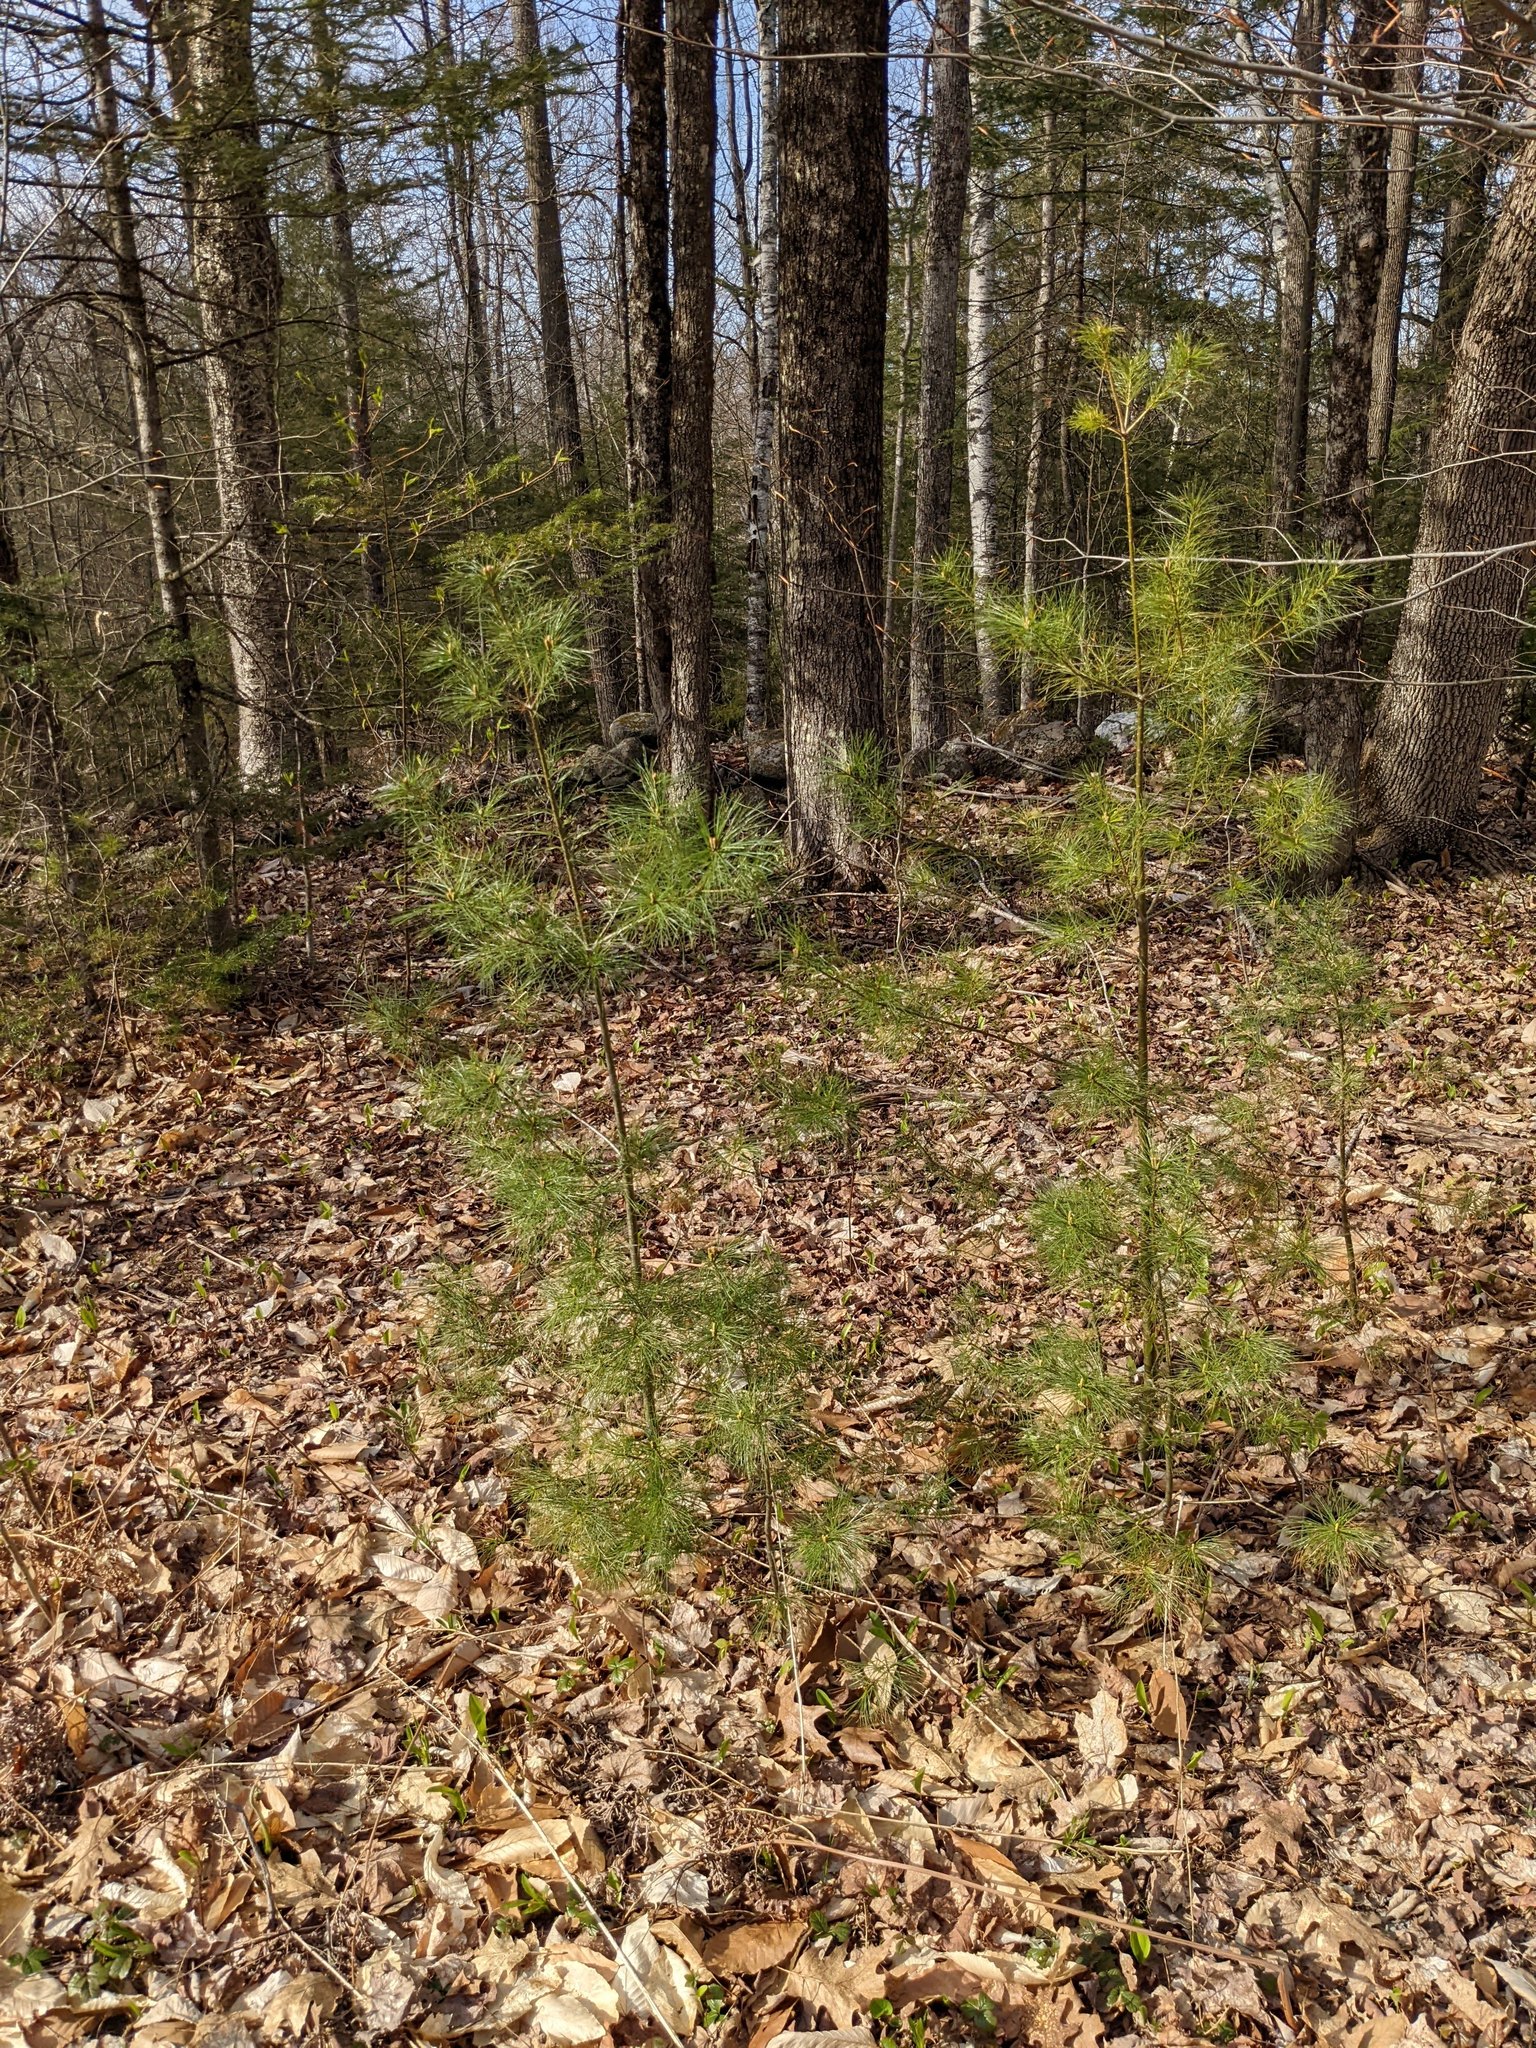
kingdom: Plantae
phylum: Tracheophyta
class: Pinopsida
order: Pinales
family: Pinaceae
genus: Pinus
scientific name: Pinus strobus
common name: Weymouth pine
